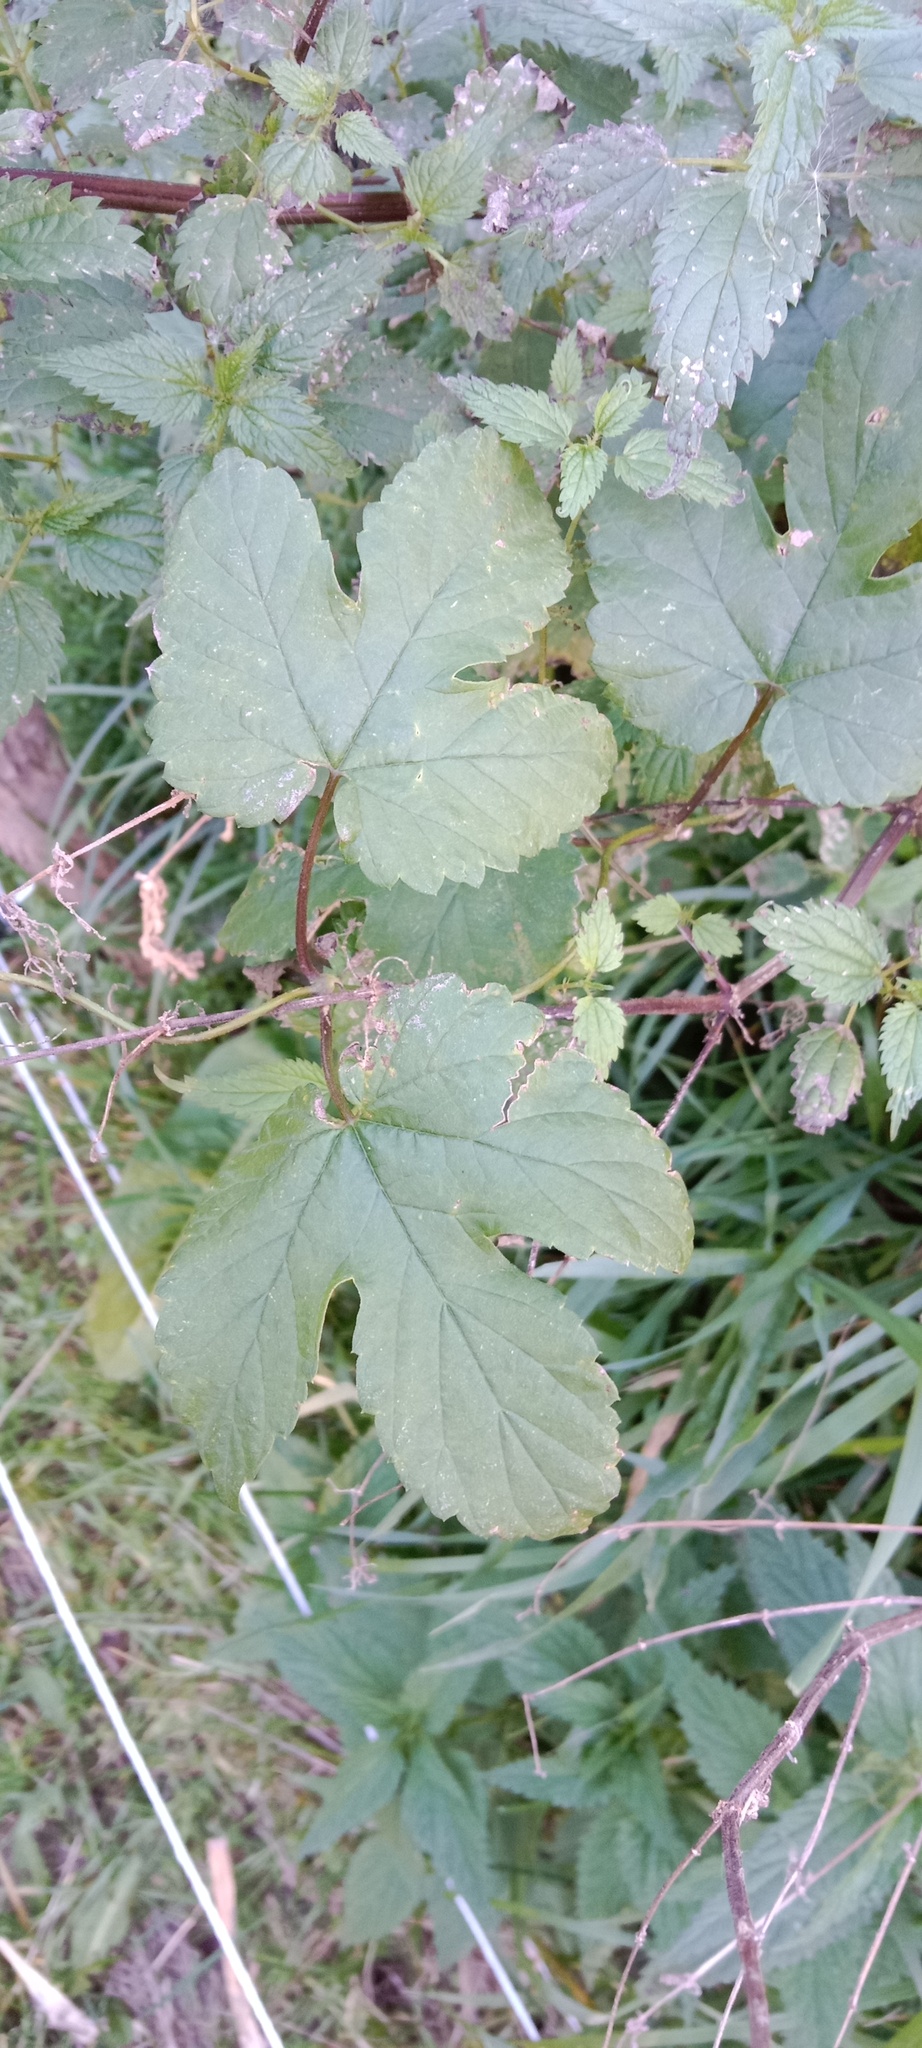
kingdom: Plantae
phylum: Tracheophyta
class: Magnoliopsida
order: Rosales
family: Cannabaceae
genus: Humulus
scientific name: Humulus lupulus
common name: Hop
